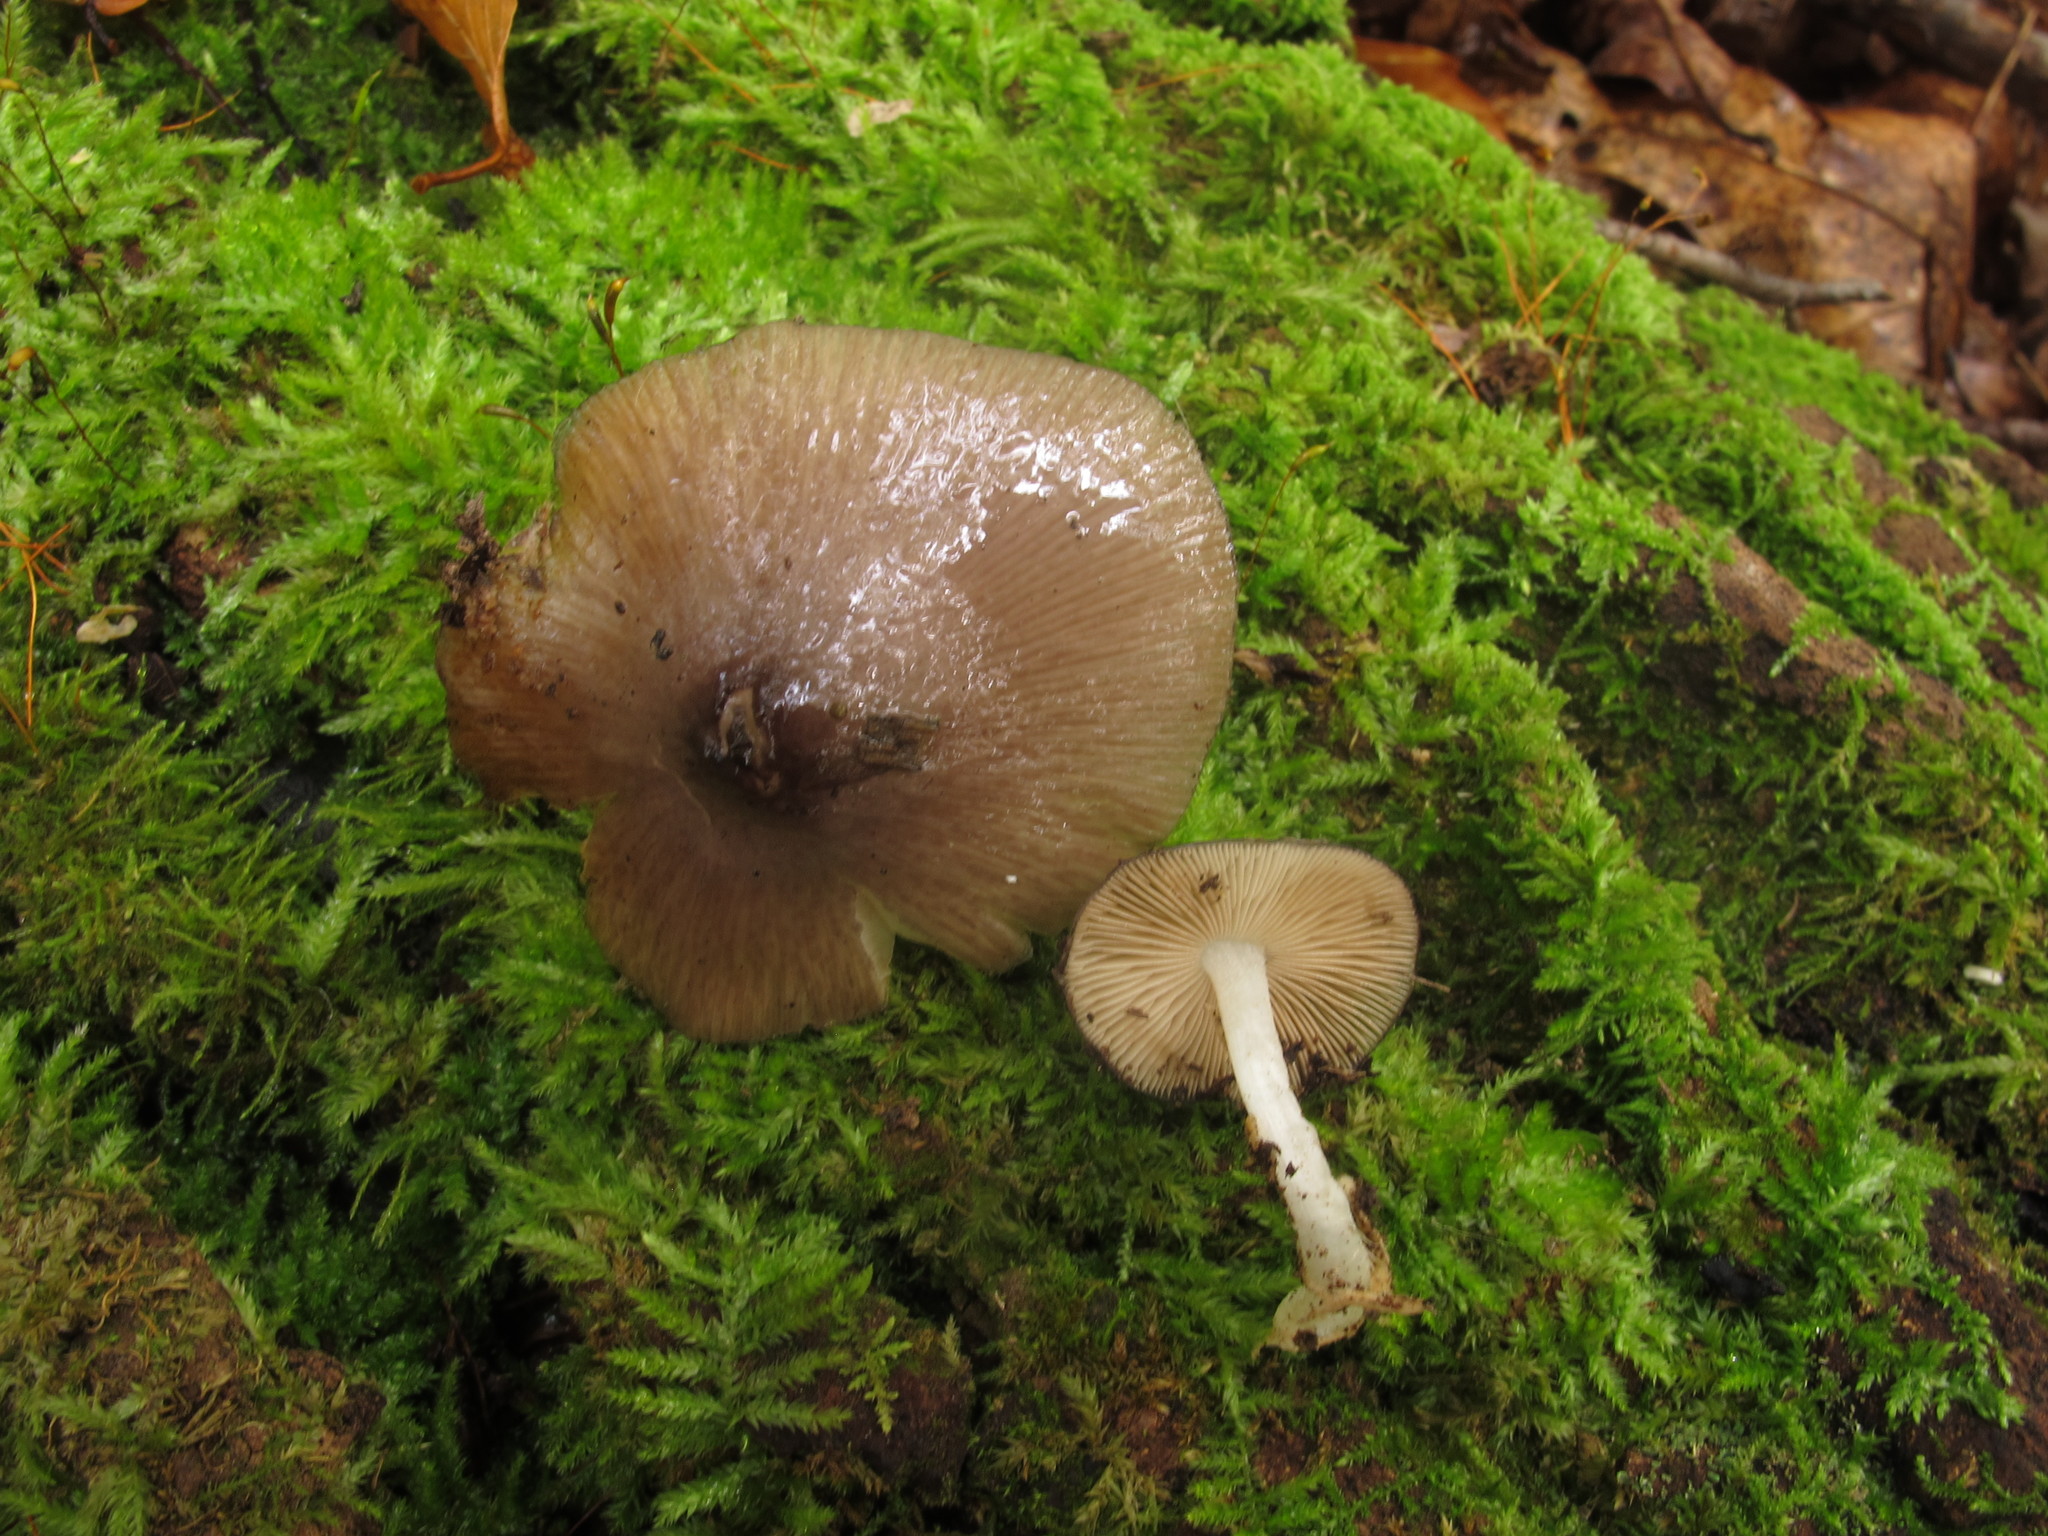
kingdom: Fungi
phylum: Basidiomycota
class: Agaricomycetes
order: Agaricales
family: Bolbitiaceae
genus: Bolbitius
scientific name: Bolbitius reticulatus
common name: Netted fieldcap
